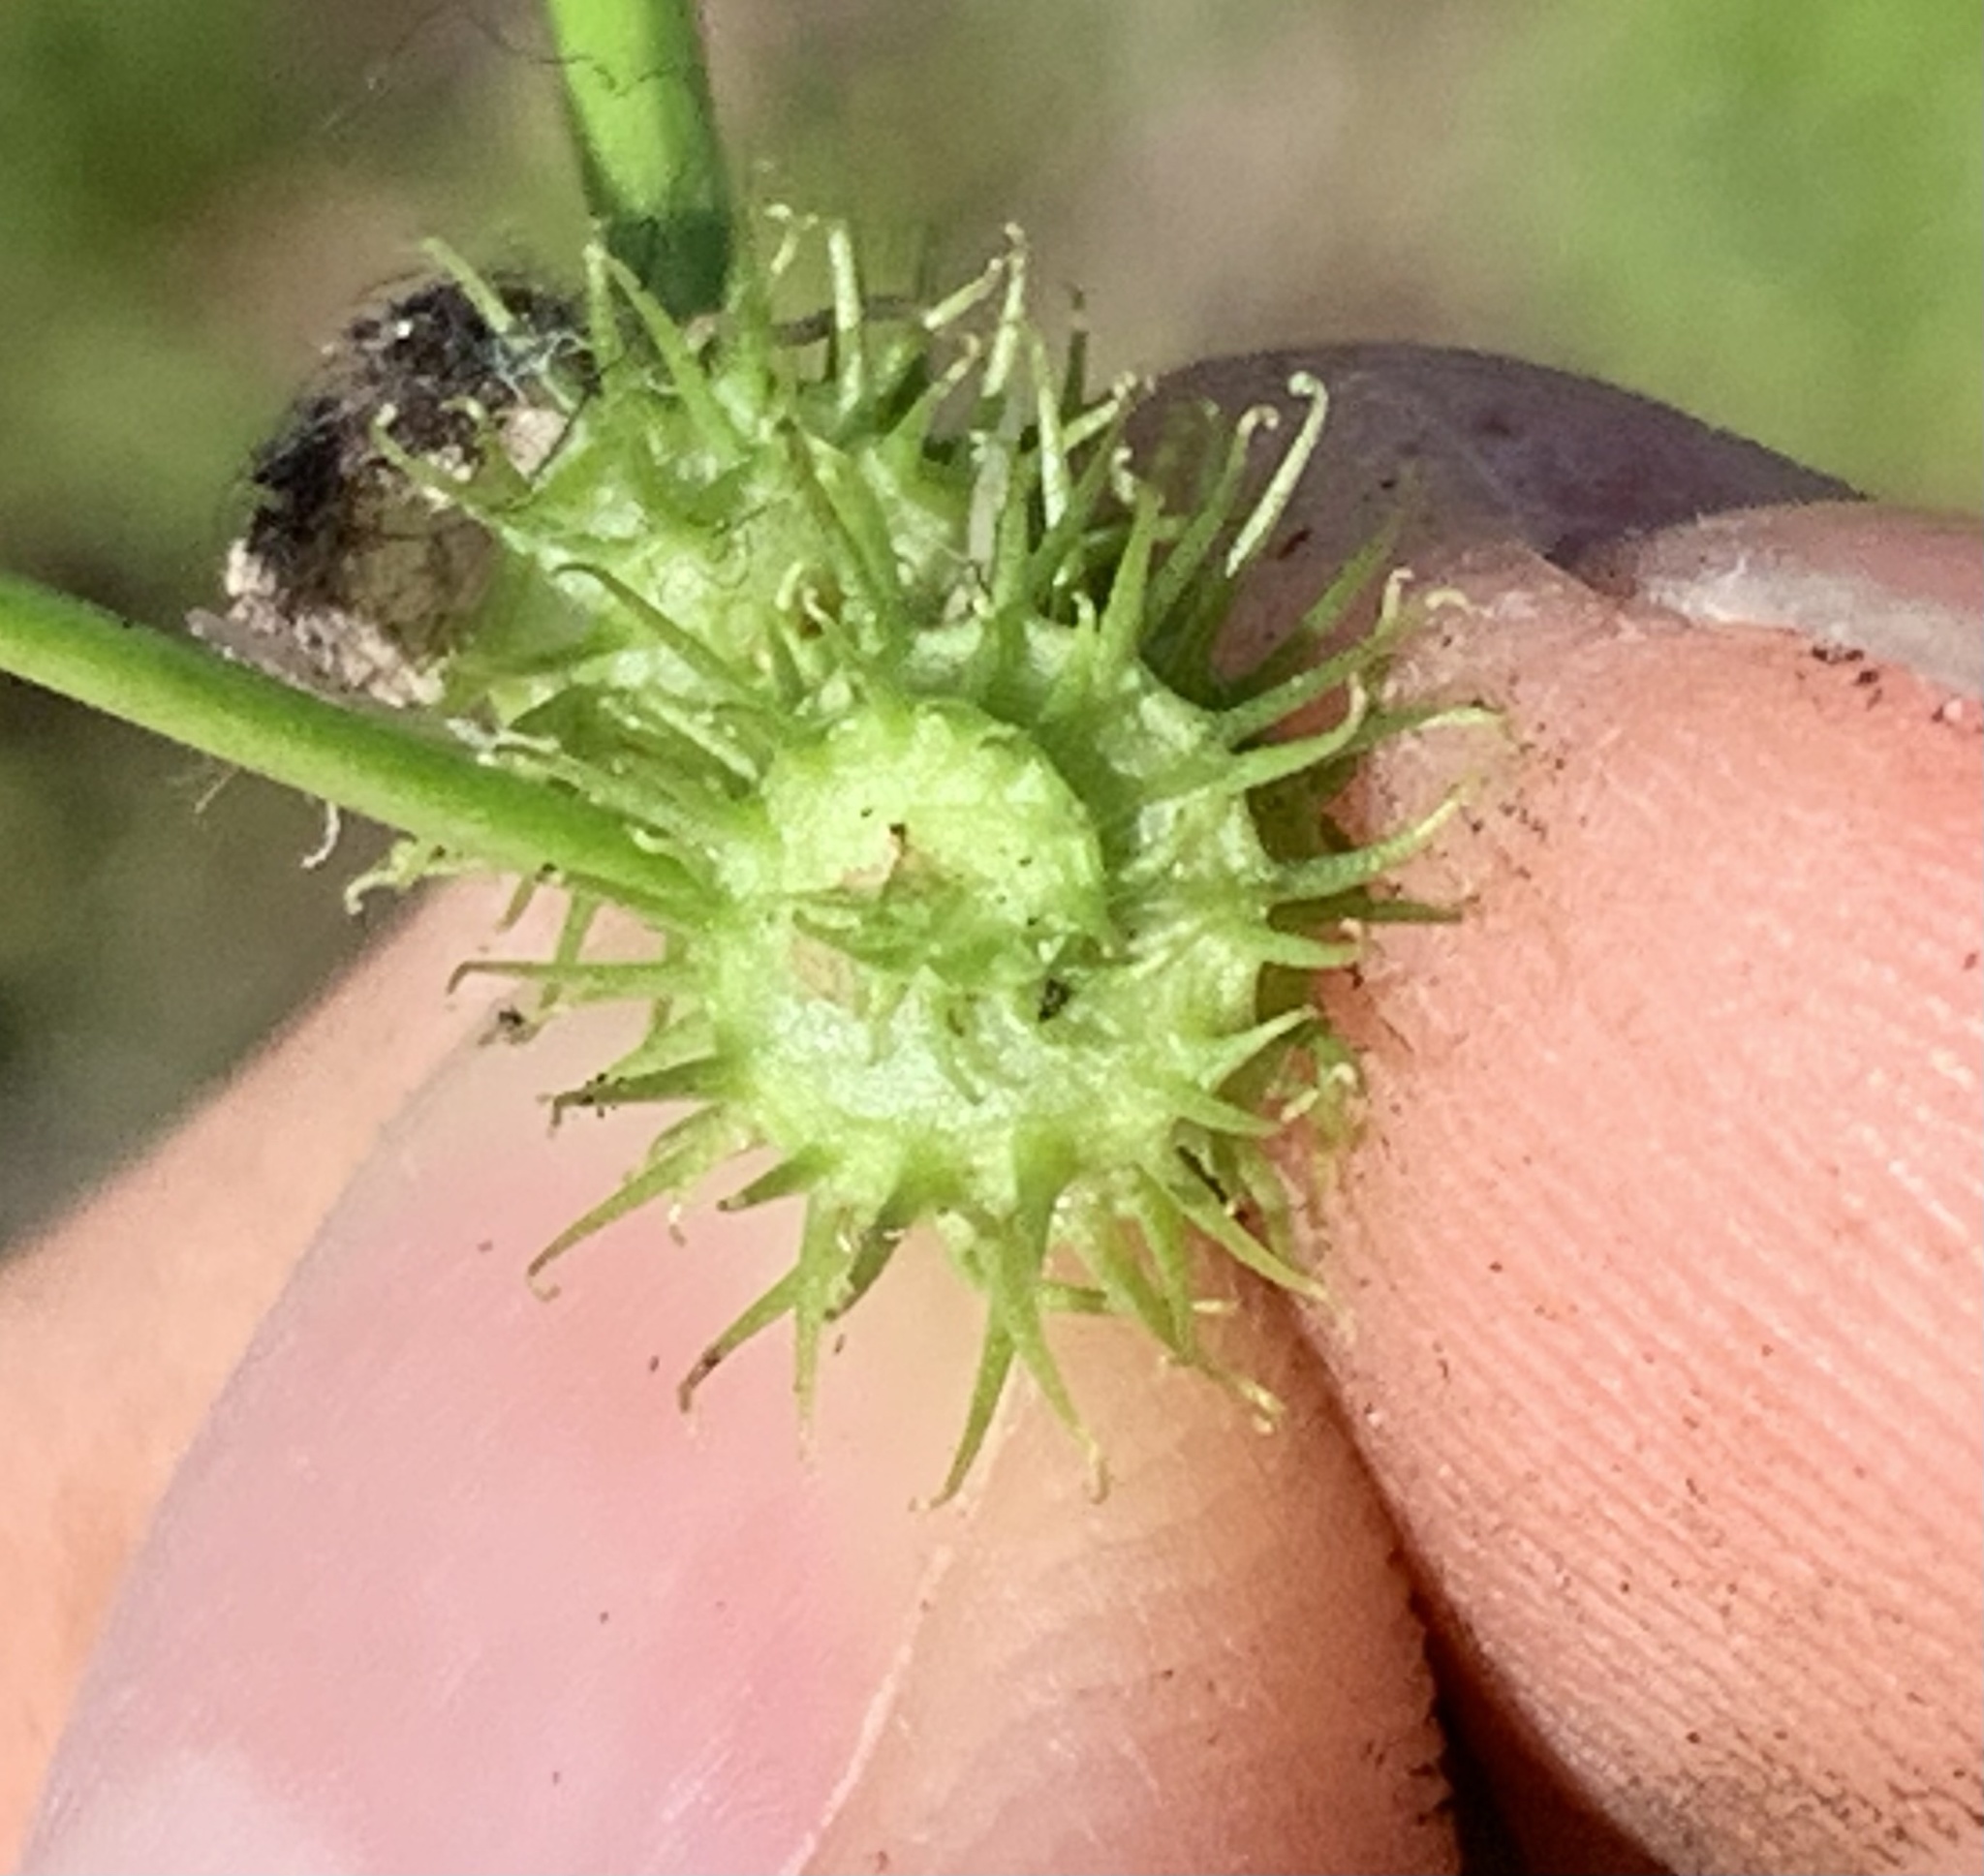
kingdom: Plantae
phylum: Tracheophyta
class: Magnoliopsida
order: Fabales
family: Fabaceae
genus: Medicago
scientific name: Medicago polymorpha
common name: Burclover
